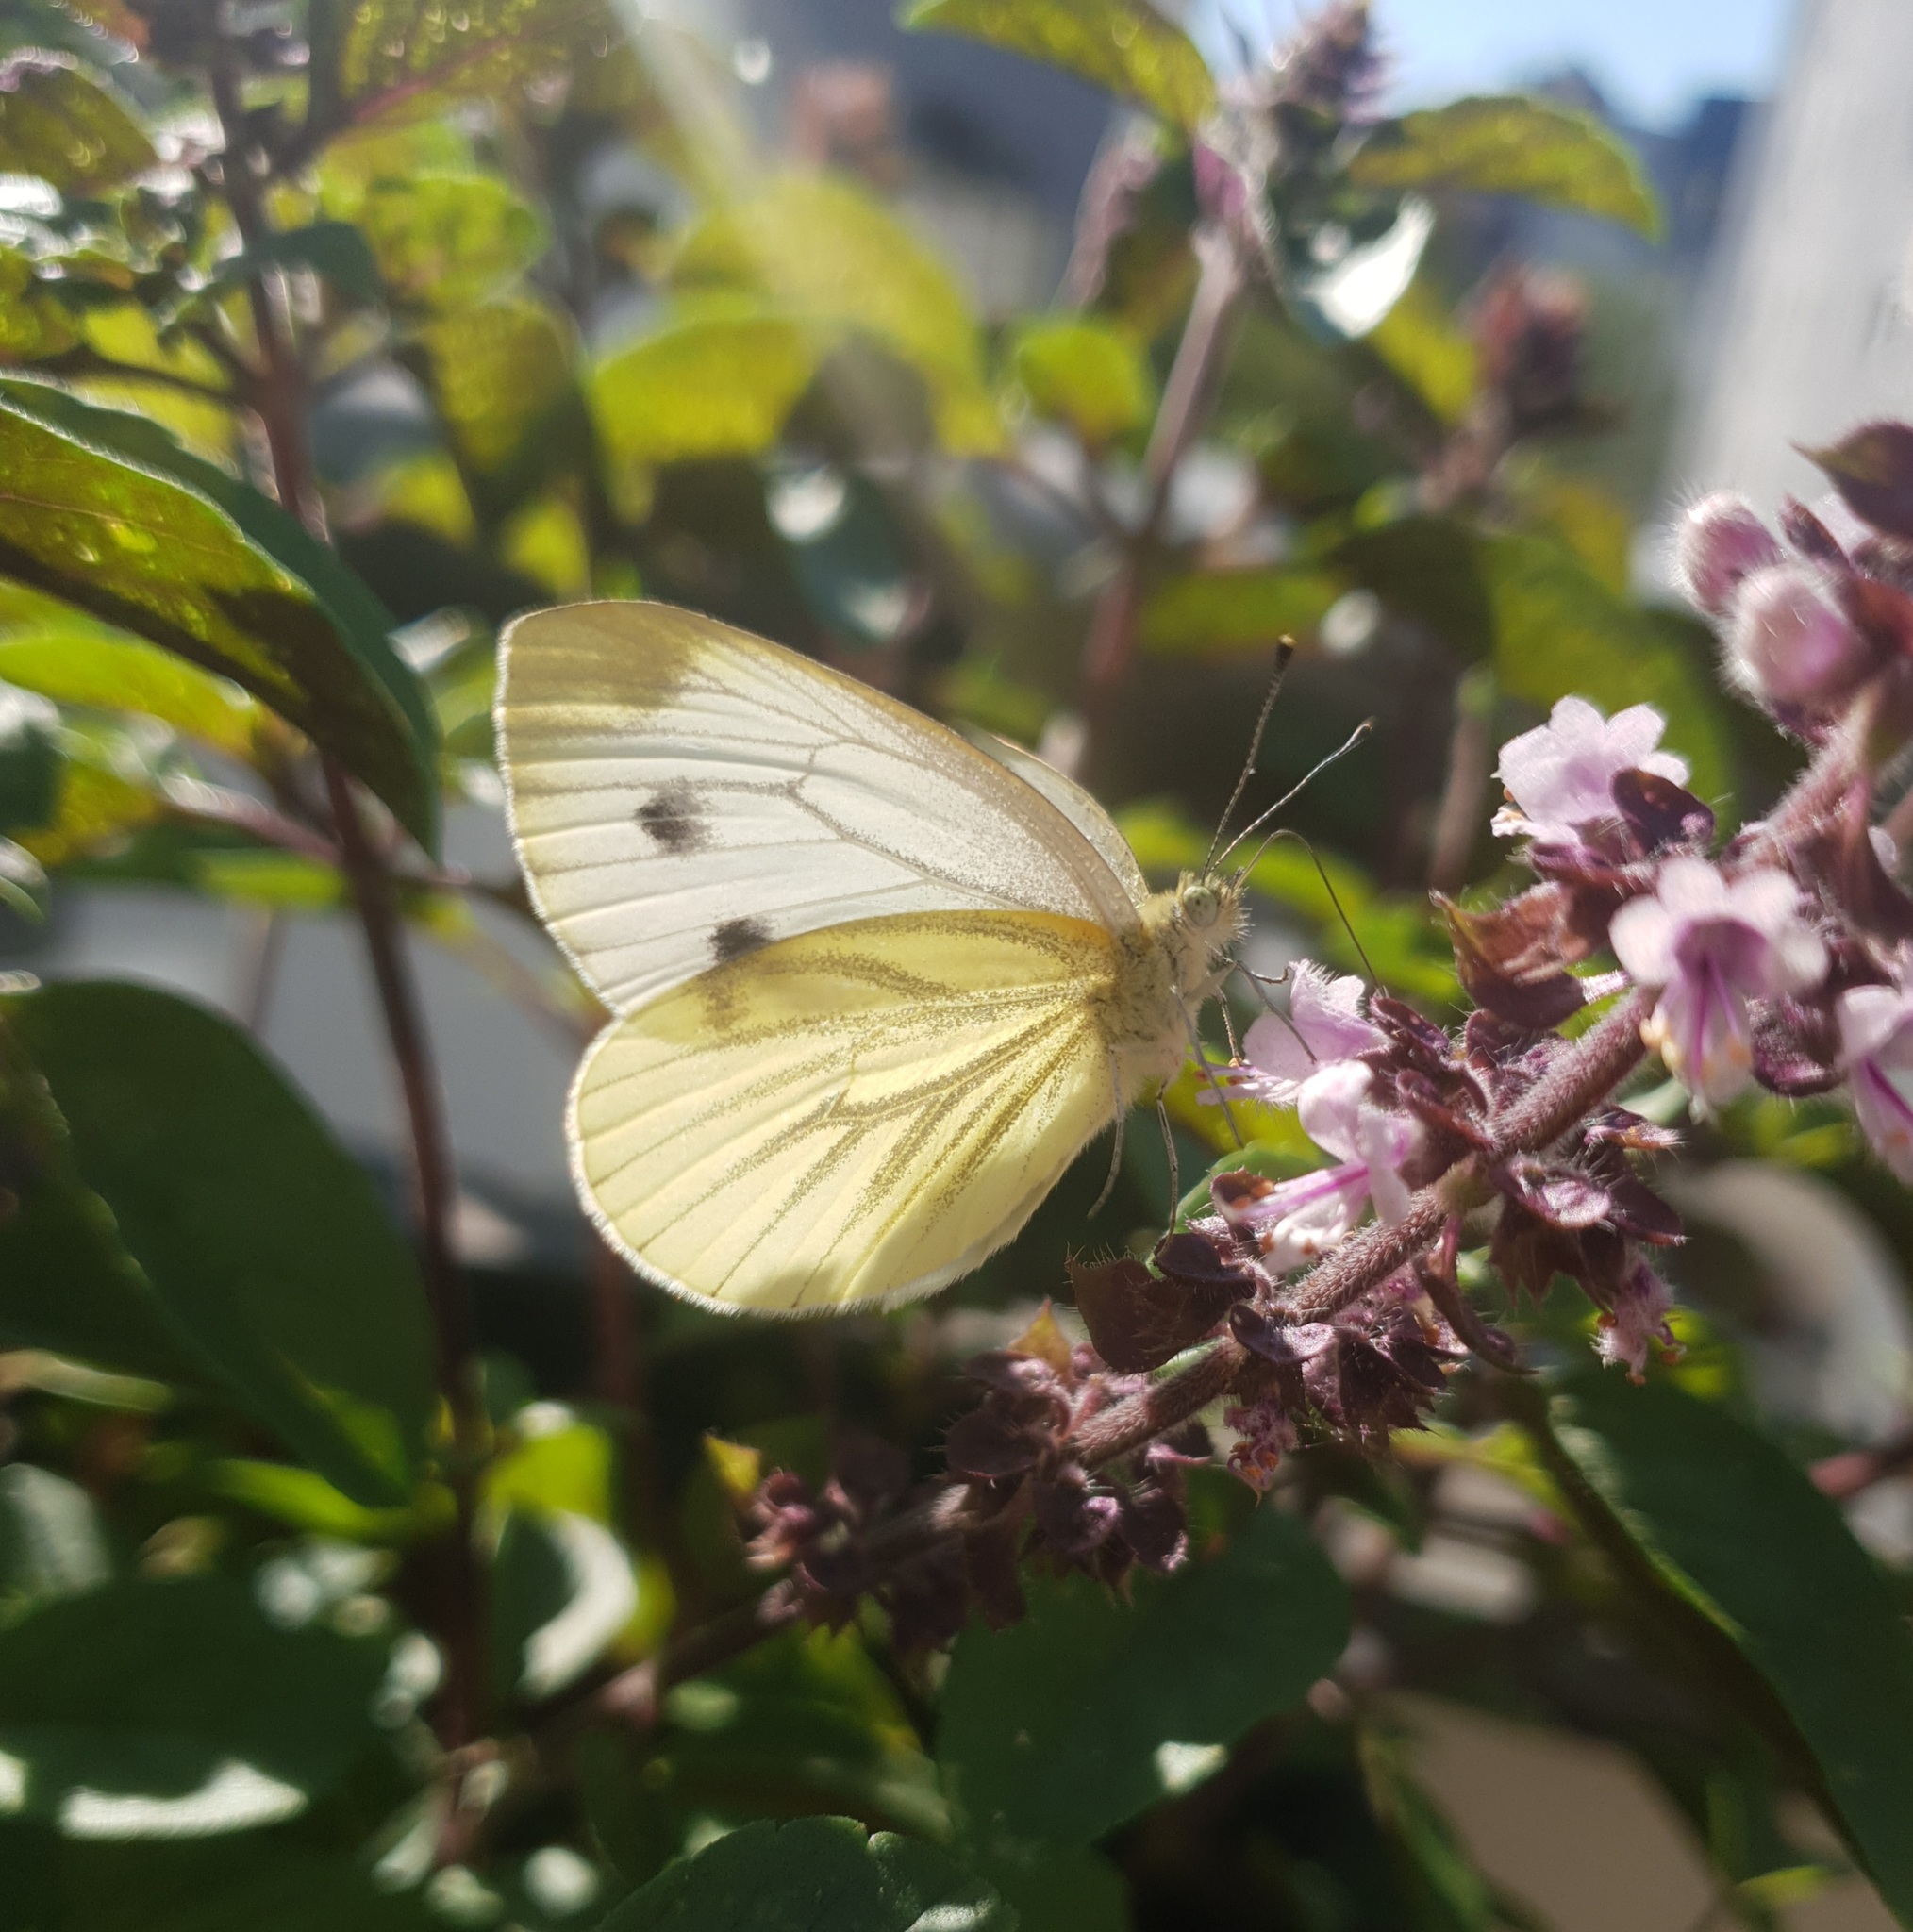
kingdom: Animalia
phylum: Arthropoda
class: Insecta
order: Lepidoptera
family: Pieridae
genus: Pieris
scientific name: Pieris napi
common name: Green-veined white
